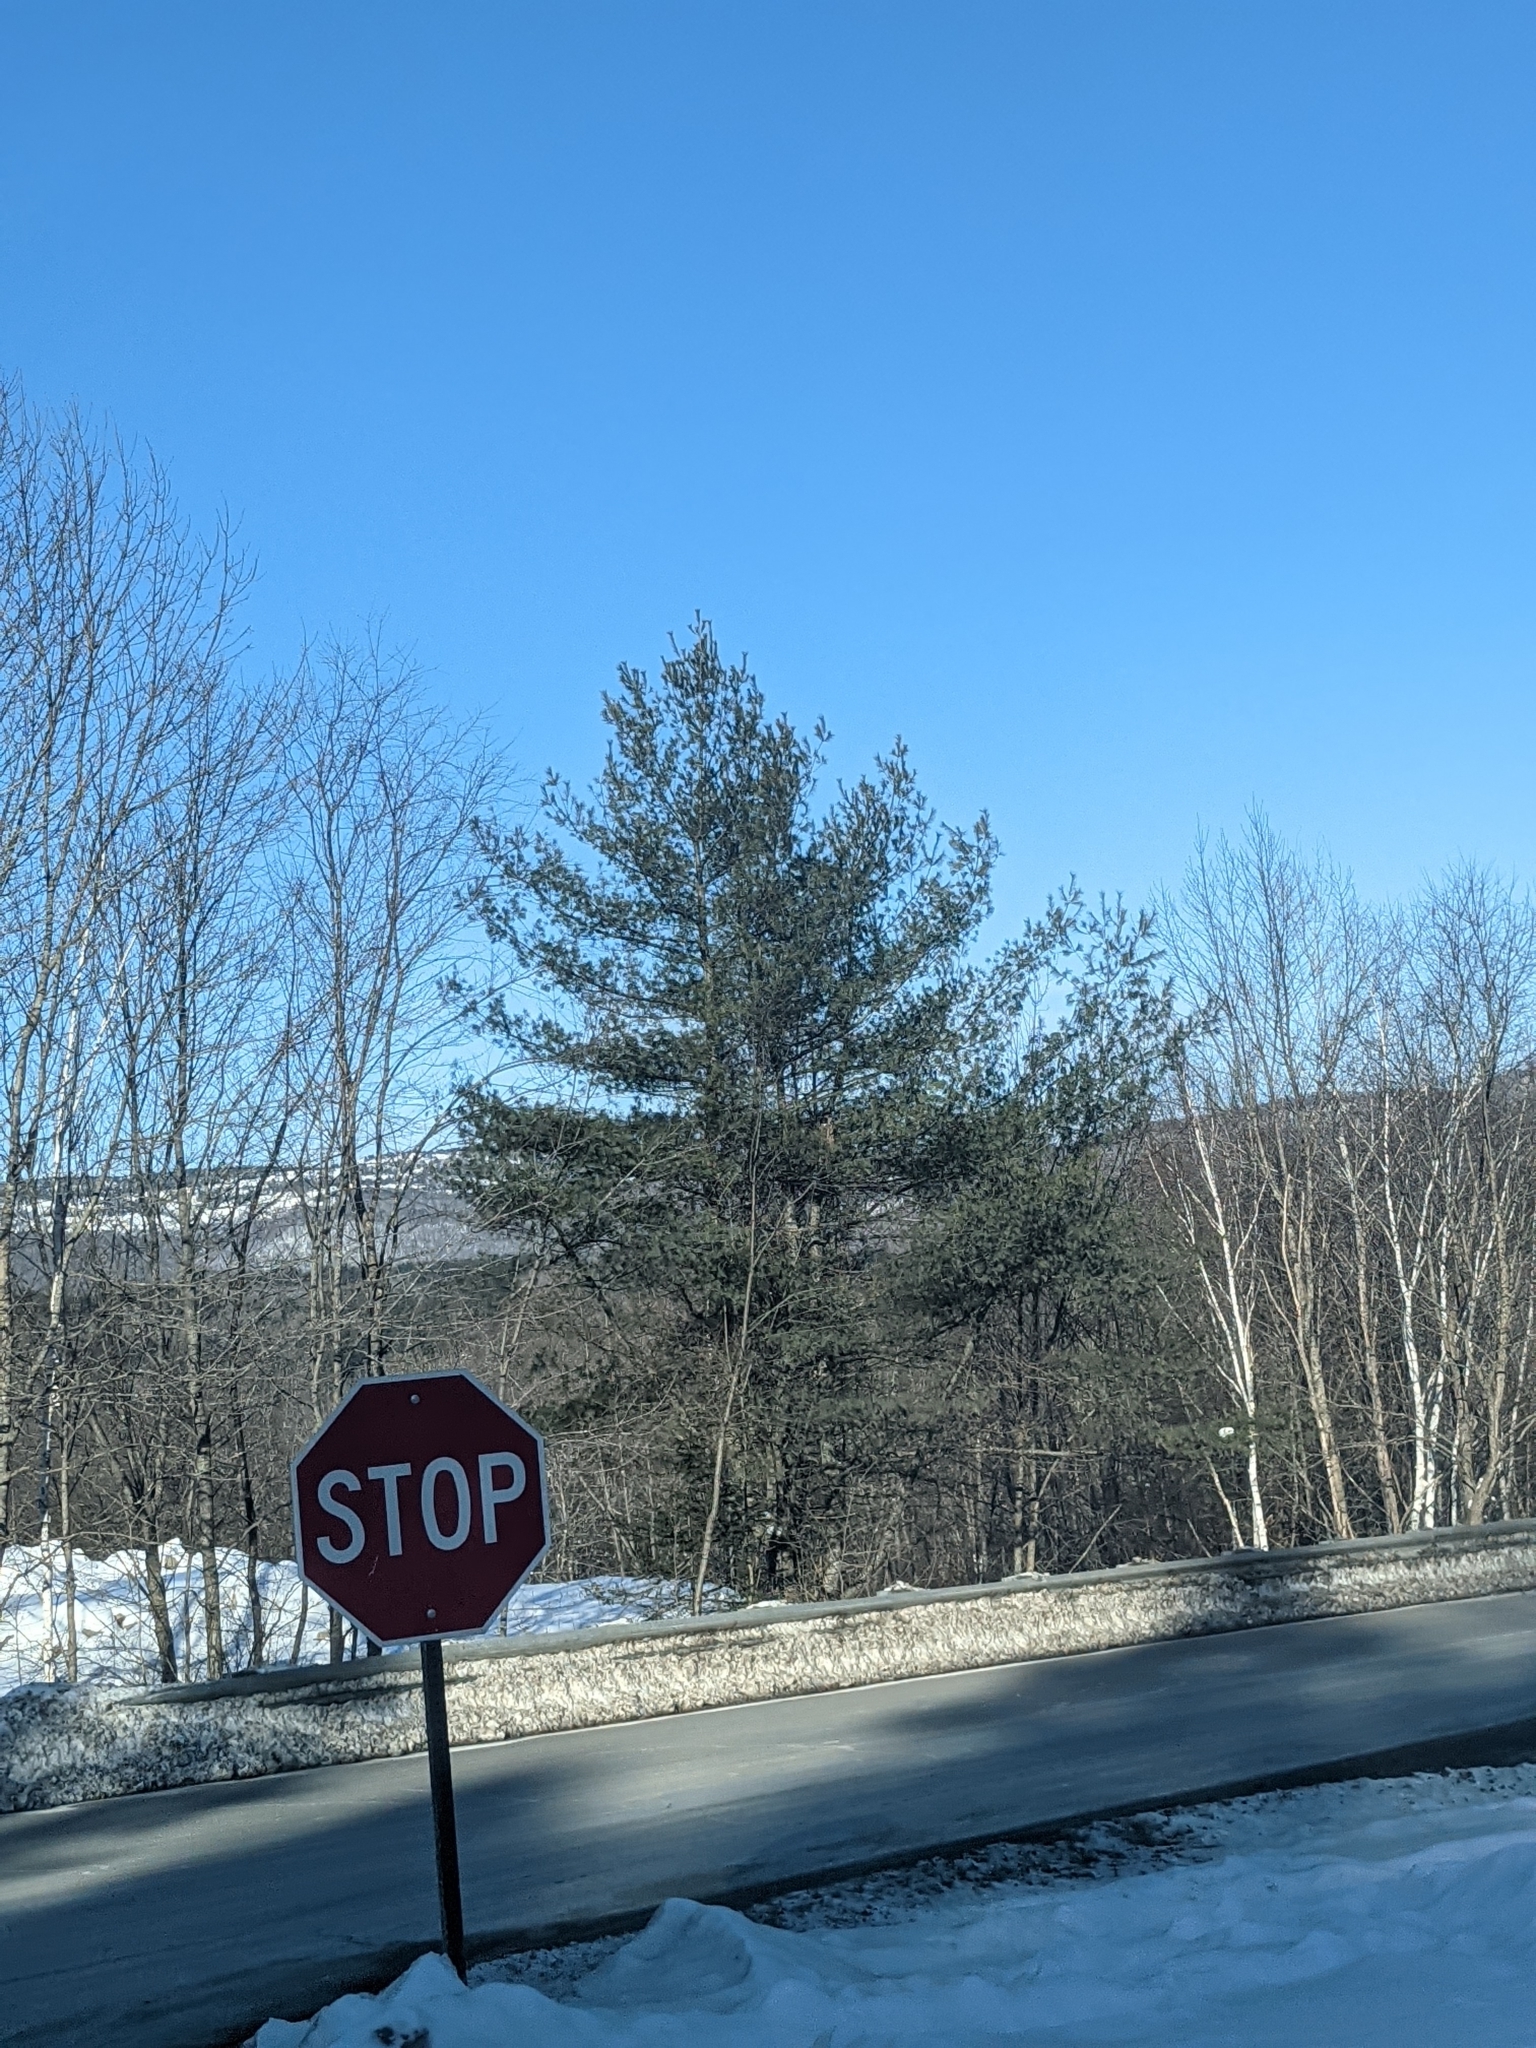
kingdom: Plantae
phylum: Tracheophyta
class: Pinopsida
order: Pinales
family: Pinaceae
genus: Pinus
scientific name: Pinus strobus
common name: Weymouth pine
